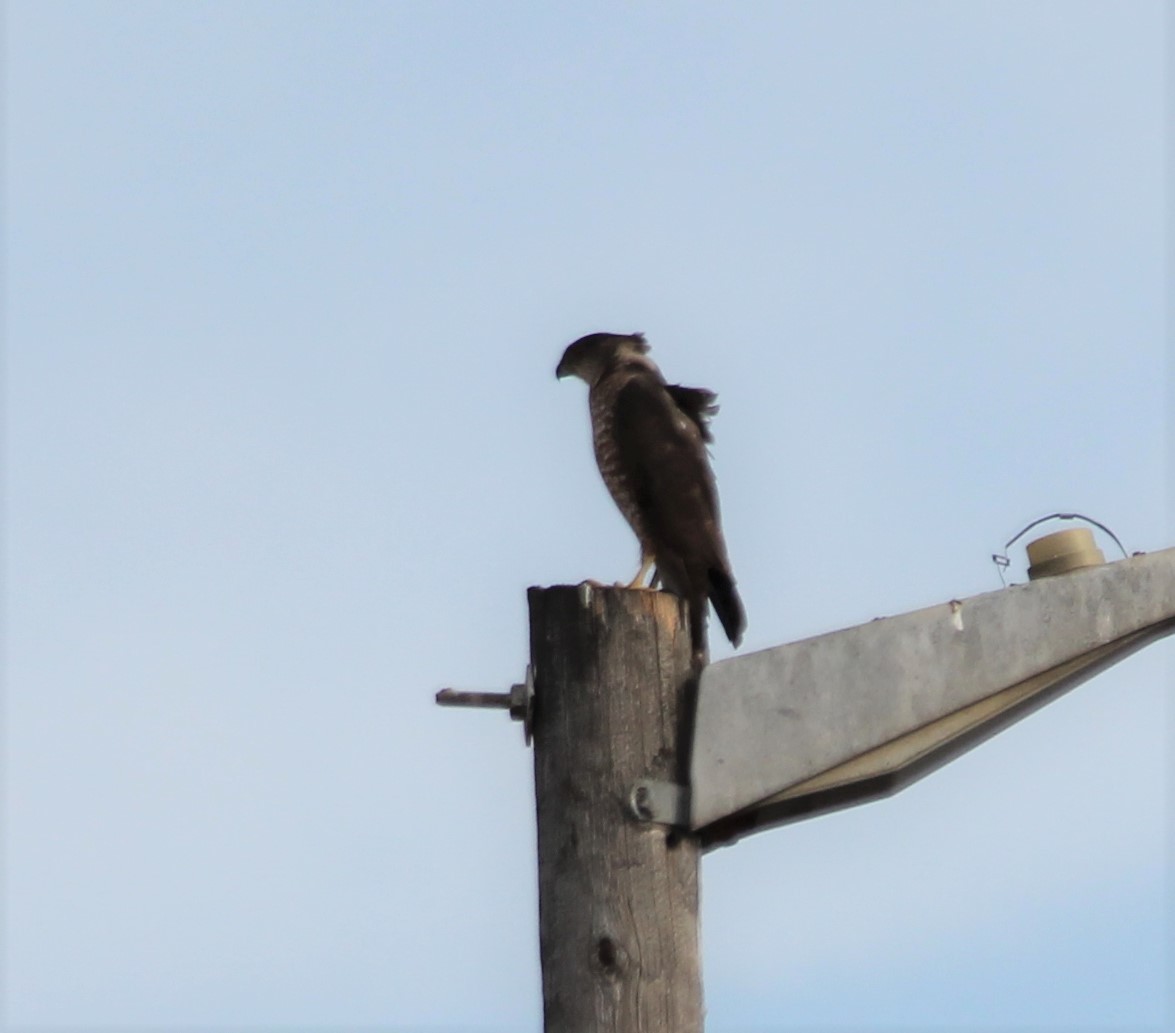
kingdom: Animalia
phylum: Chordata
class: Aves
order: Accipitriformes
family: Accipitridae
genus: Accipiter
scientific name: Accipiter cooperii
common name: Cooper's hawk
